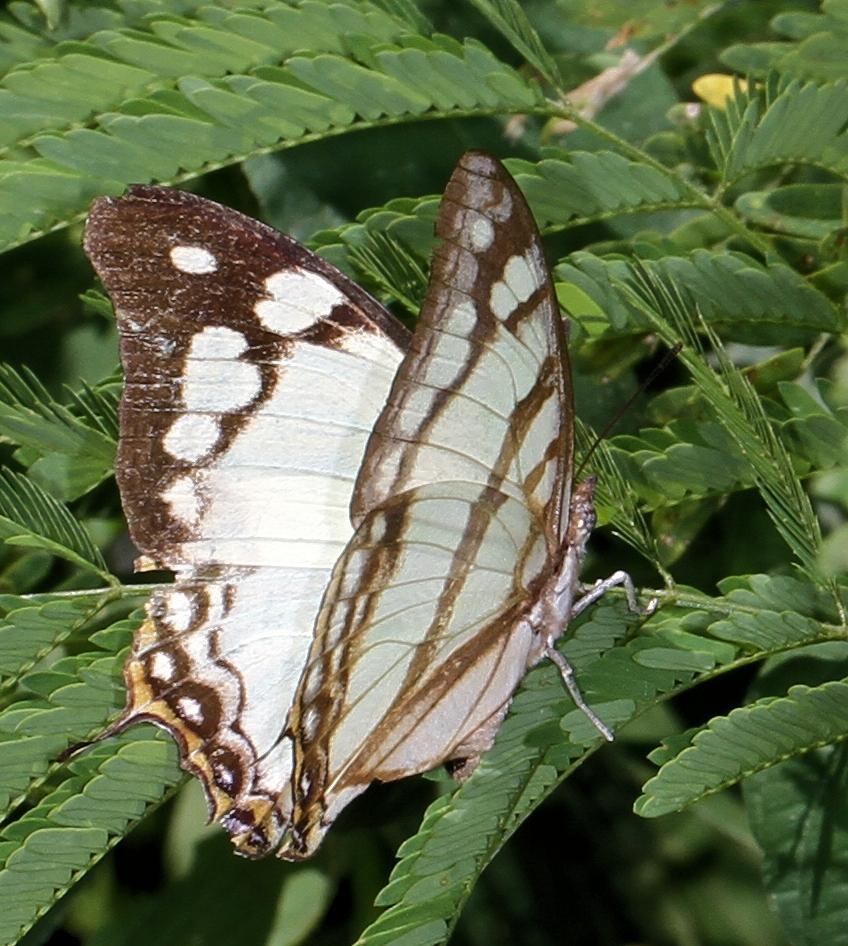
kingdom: Animalia
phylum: Arthropoda
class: Insecta
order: Lepidoptera
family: Nymphalidae
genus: Polyura
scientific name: Polyura
